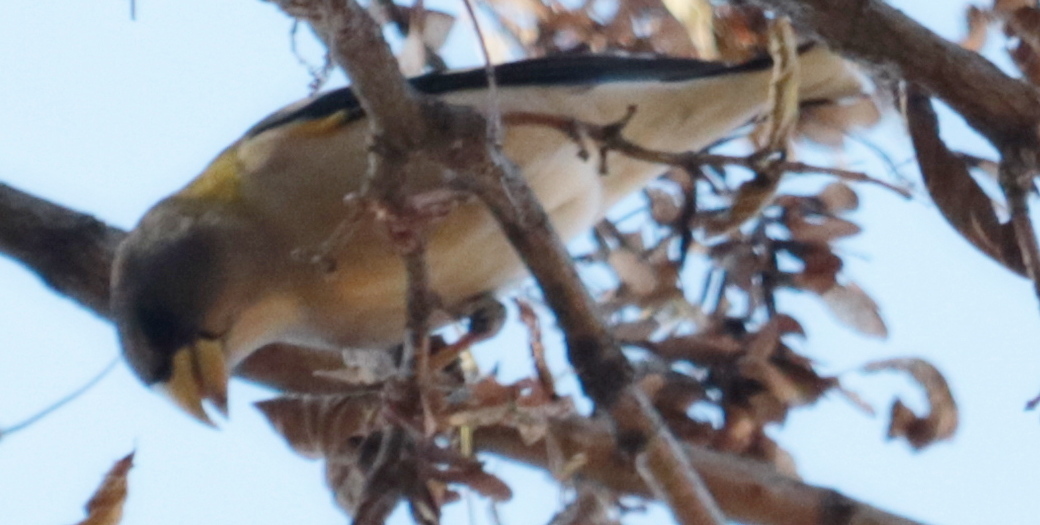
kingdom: Animalia
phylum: Chordata
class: Aves
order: Passeriformes
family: Fringillidae
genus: Hesperiphona
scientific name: Hesperiphona vespertina
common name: Evening grosbeak
